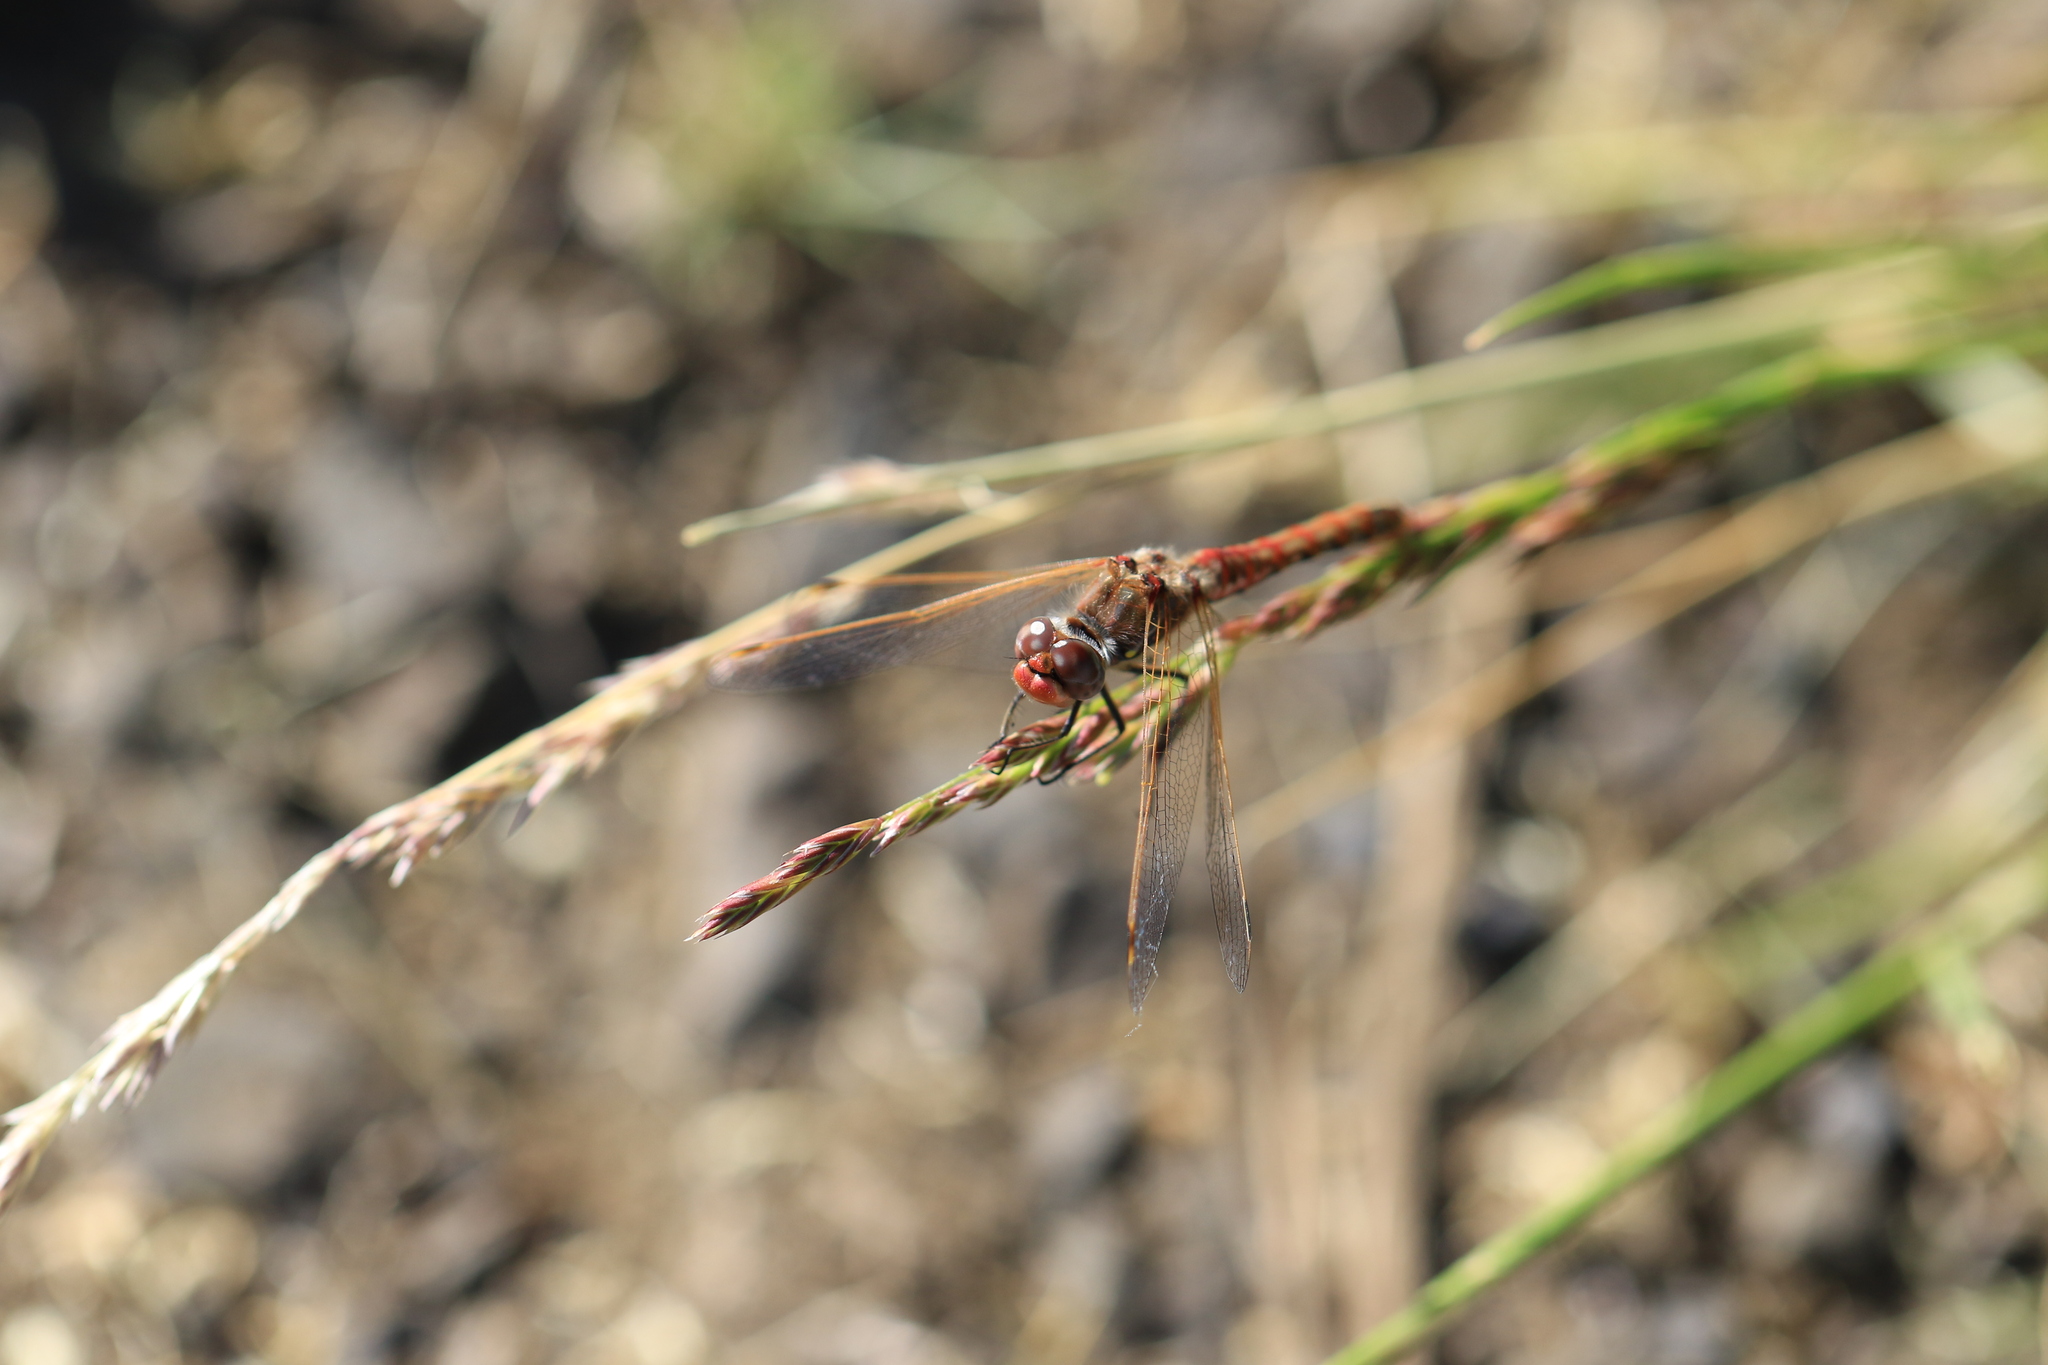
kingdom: Animalia
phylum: Arthropoda
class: Insecta
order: Odonata
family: Libellulidae
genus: Sympetrum
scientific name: Sympetrum corruptum
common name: Variegated meadowhawk
